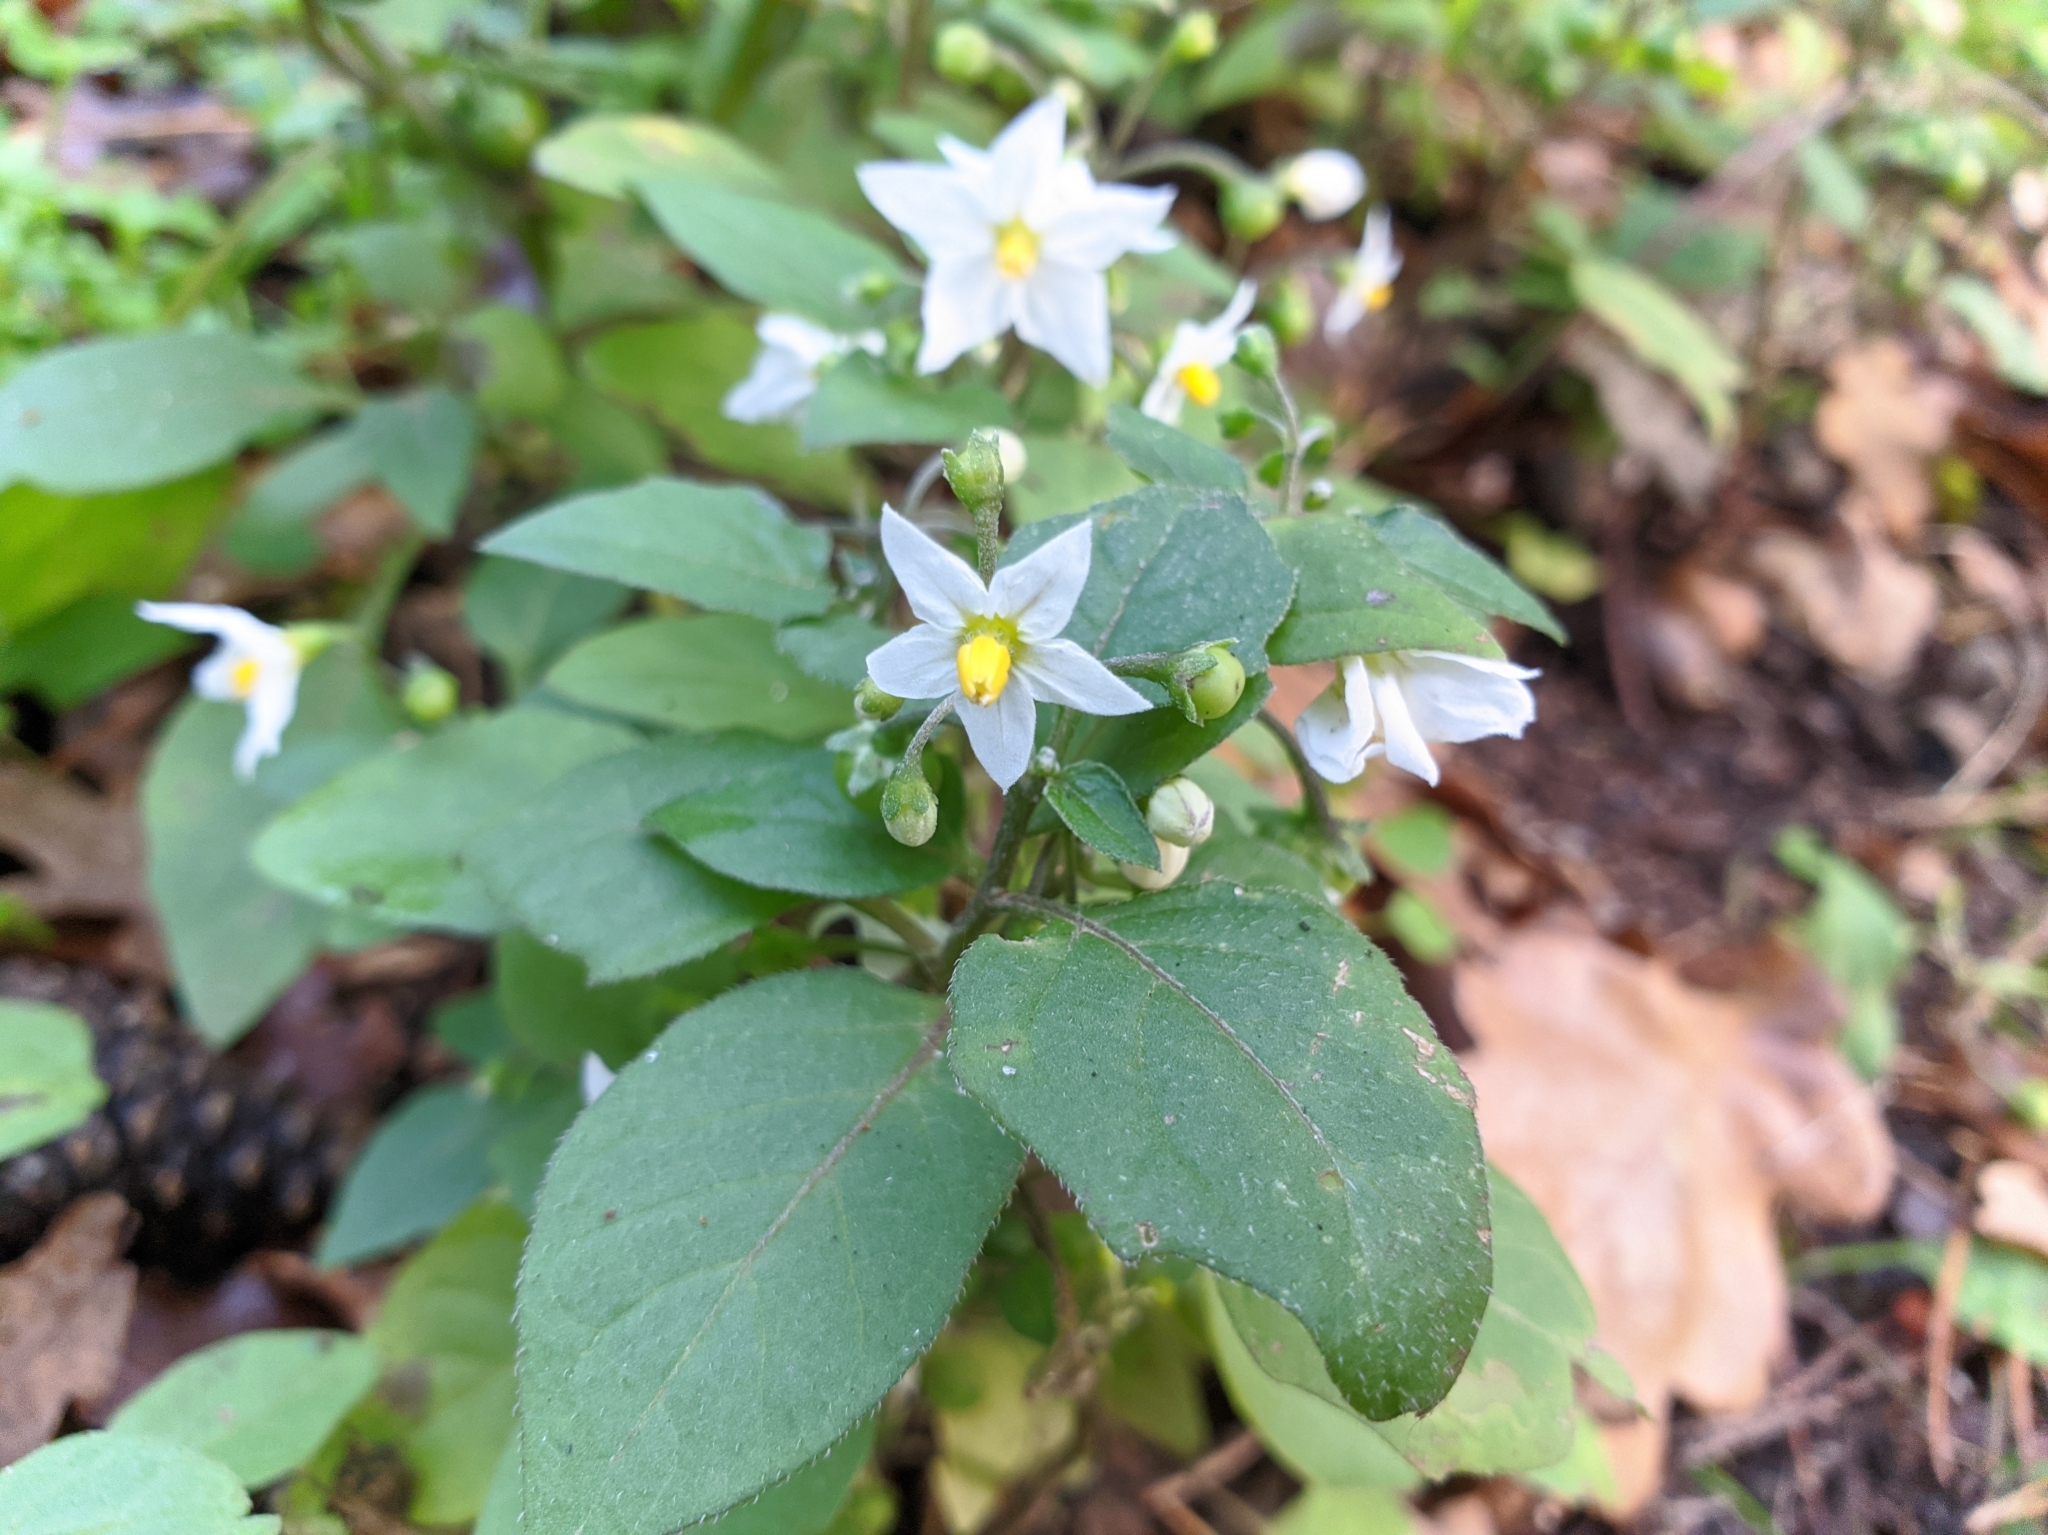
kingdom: Plantae
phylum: Tracheophyta
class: Magnoliopsida
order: Solanales
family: Solanaceae
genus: Solanum
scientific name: Solanum nigrum
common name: Black nightshade
